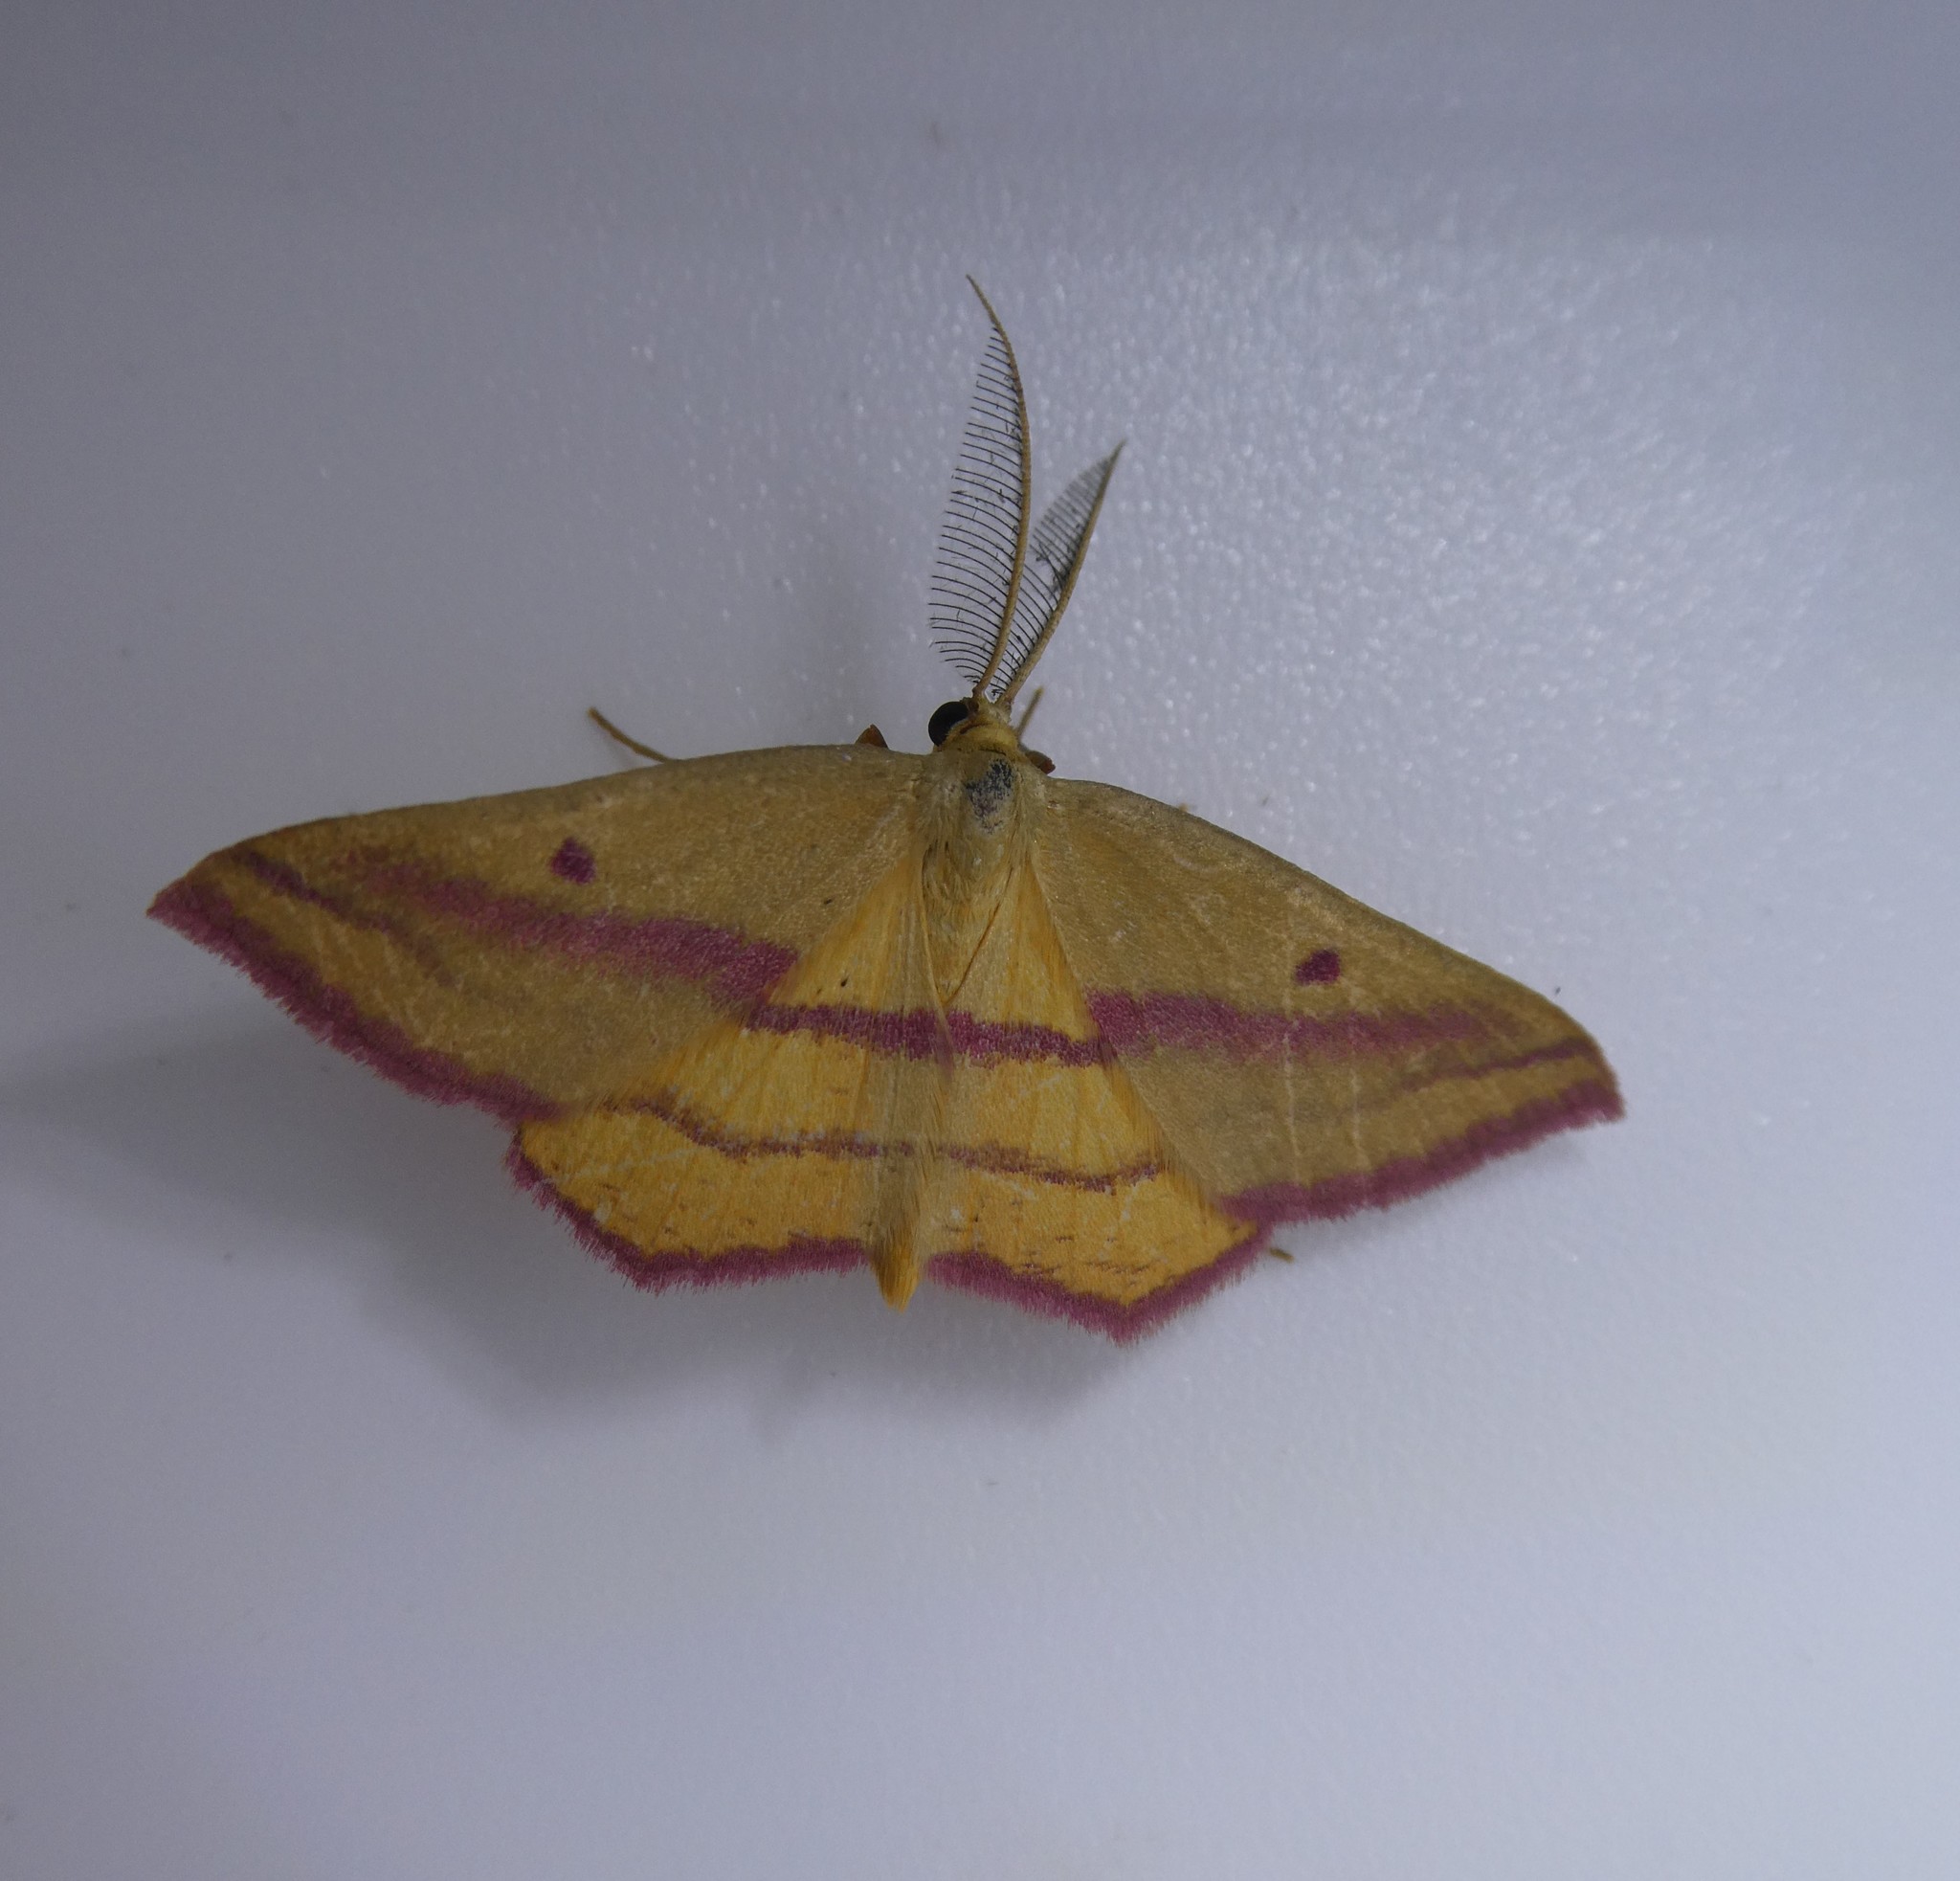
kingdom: Animalia
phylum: Arthropoda
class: Insecta
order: Lepidoptera
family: Geometridae
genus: Haematopis
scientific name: Haematopis grataria
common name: Chickweed geometer
